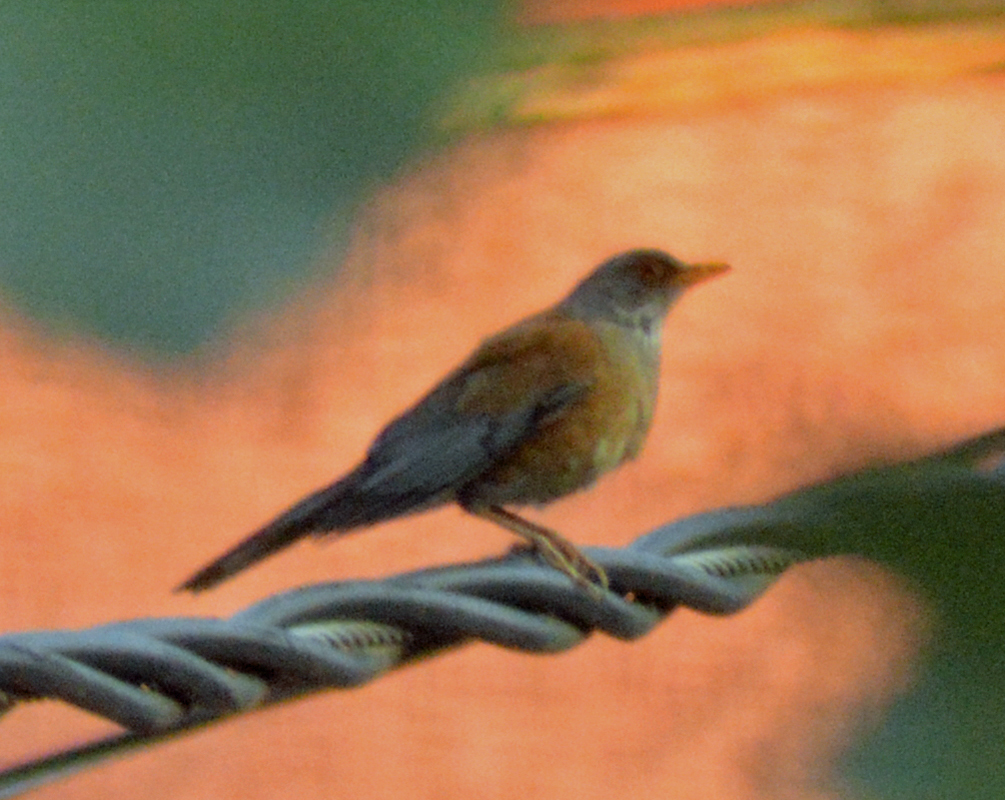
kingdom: Animalia
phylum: Chordata
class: Aves
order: Passeriformes
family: Turdidae
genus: Turdus
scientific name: Turdus rufopalliatus
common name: Rufous-backed robin
